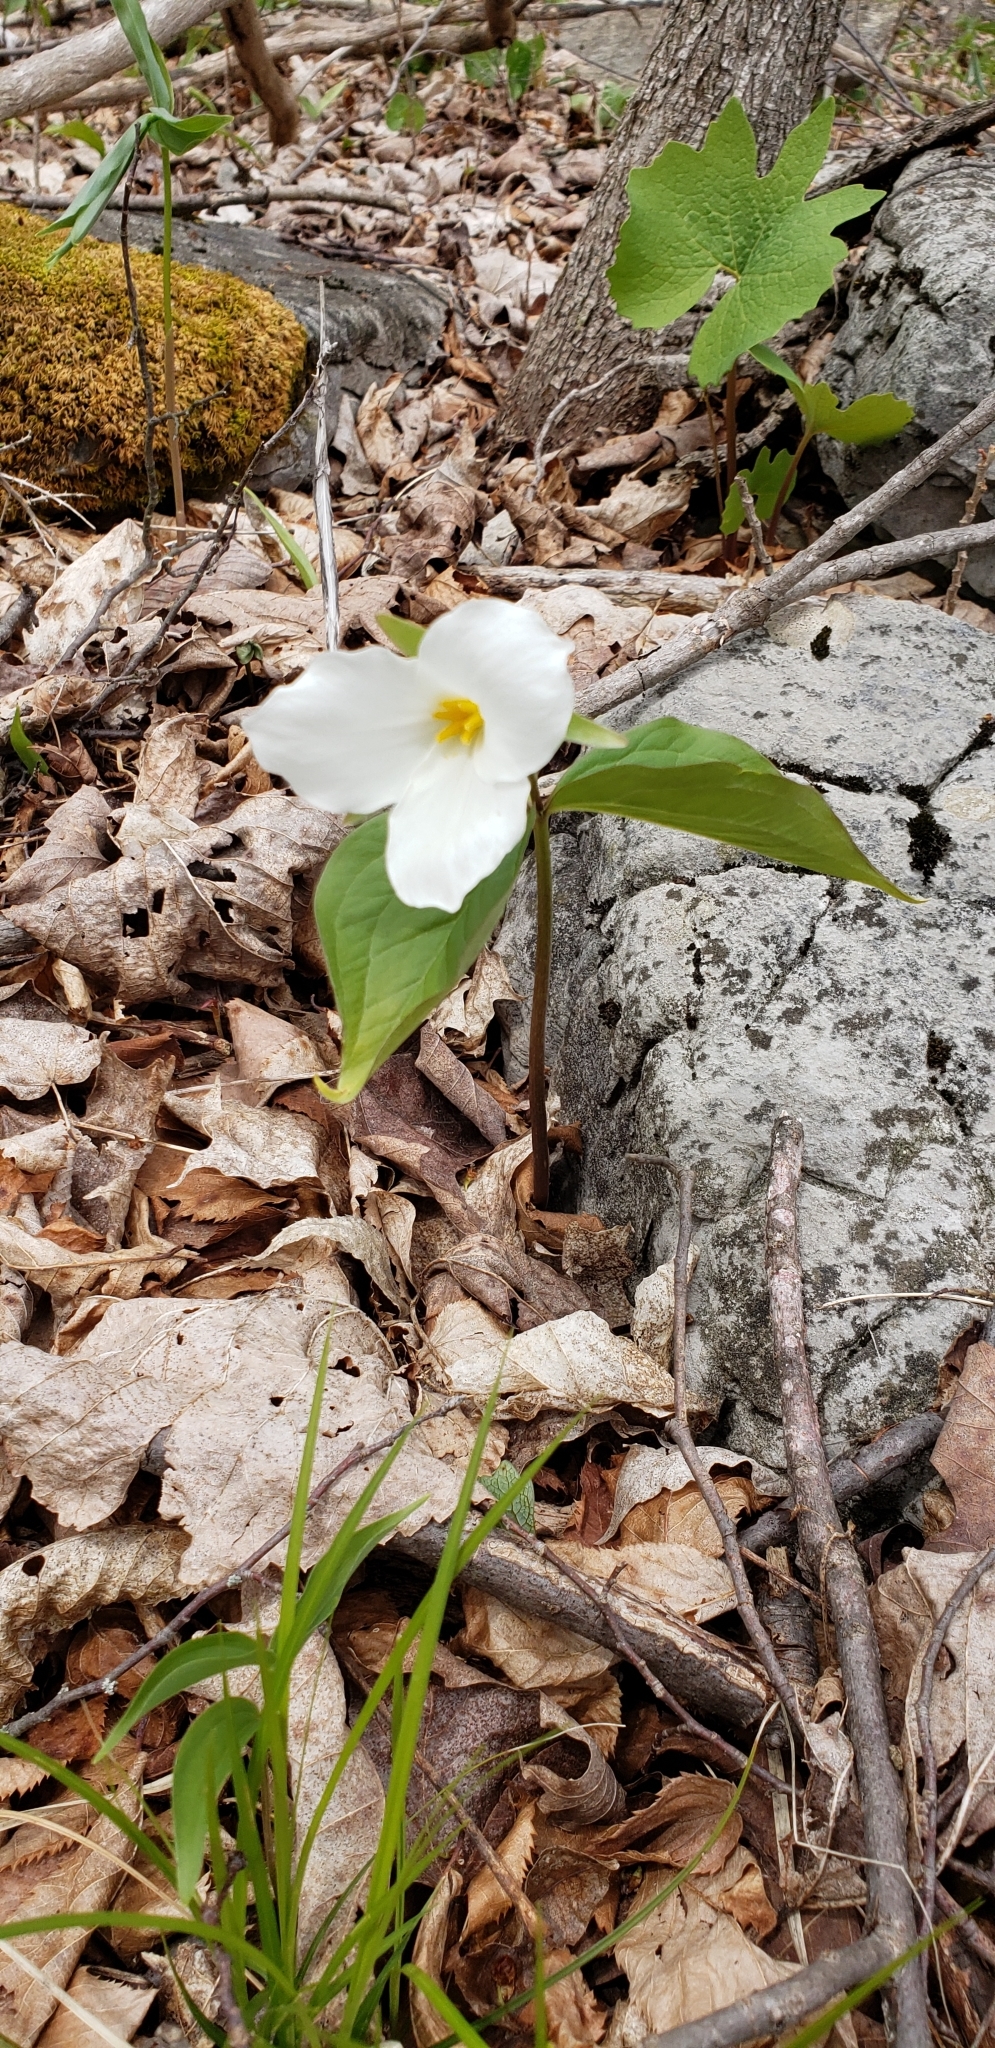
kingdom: Plantae
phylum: Tracheophyta
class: Liliopsida
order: Liliales
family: Melanthiaceae
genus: Trillium
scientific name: Trillium grandiflorum
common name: Great white trillium
